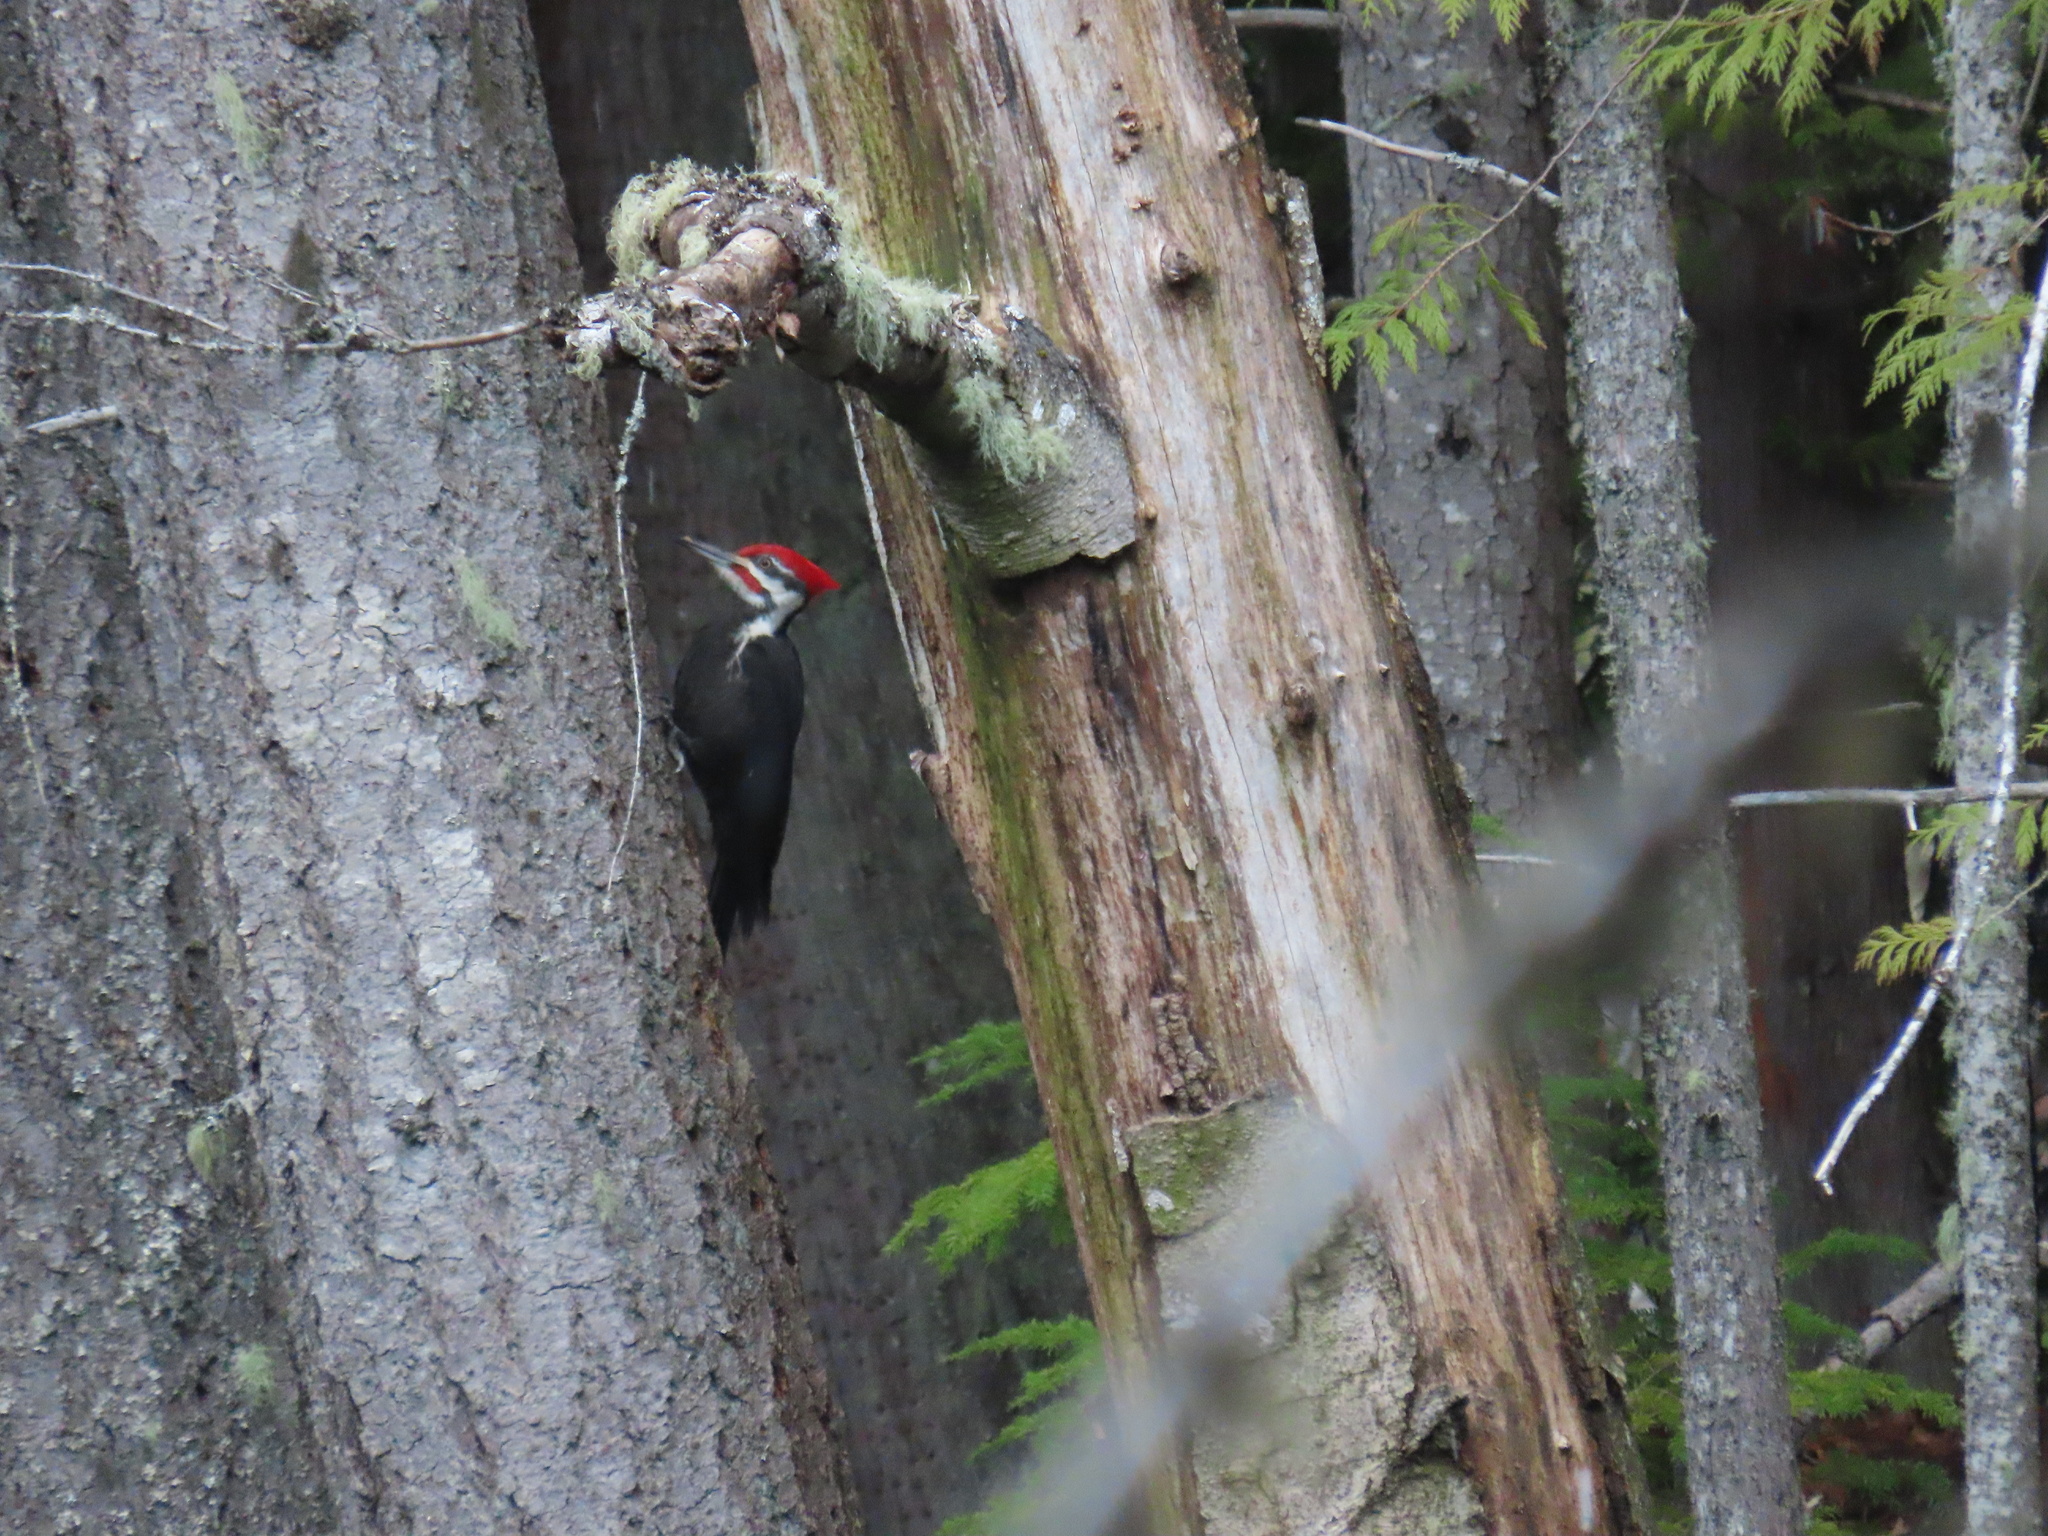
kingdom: Animalia
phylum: Chordata
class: Aves
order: Piciformes
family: Picidae
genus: Dryocopus
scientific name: Dryocopus pileatus
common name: Pileated woodpecker
